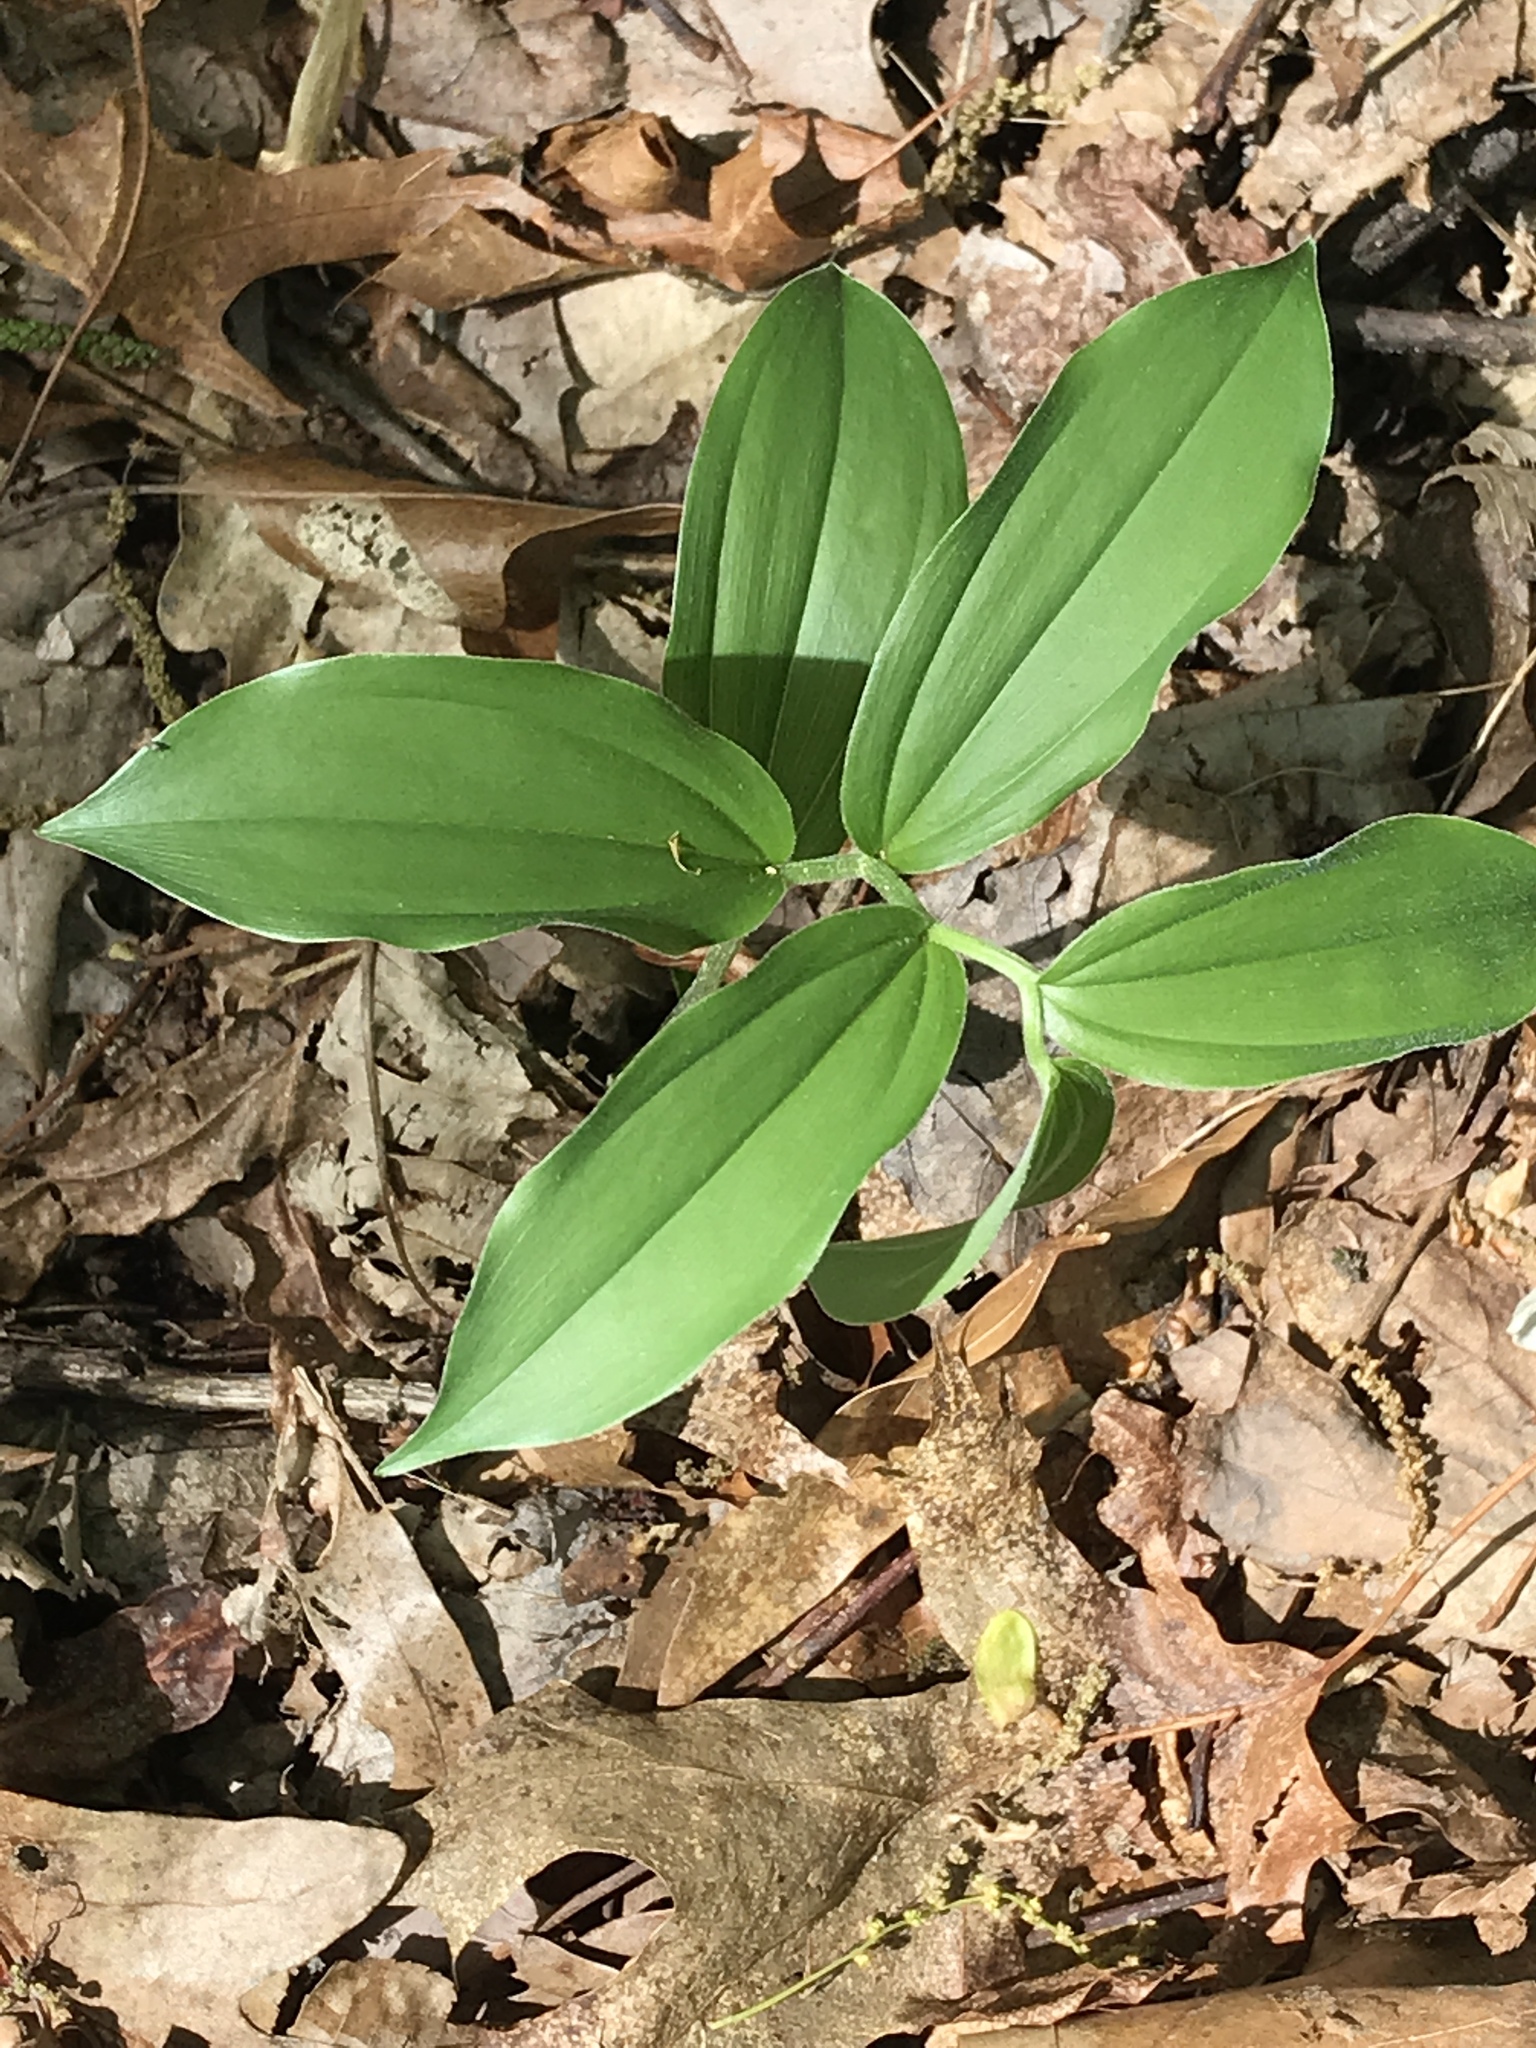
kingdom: Plantae
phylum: Tracheophyta
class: Liliopsida
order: Asparagales
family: Asparagaceae
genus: Maianthemum
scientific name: Maianthemum racemosum
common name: False spikenard
